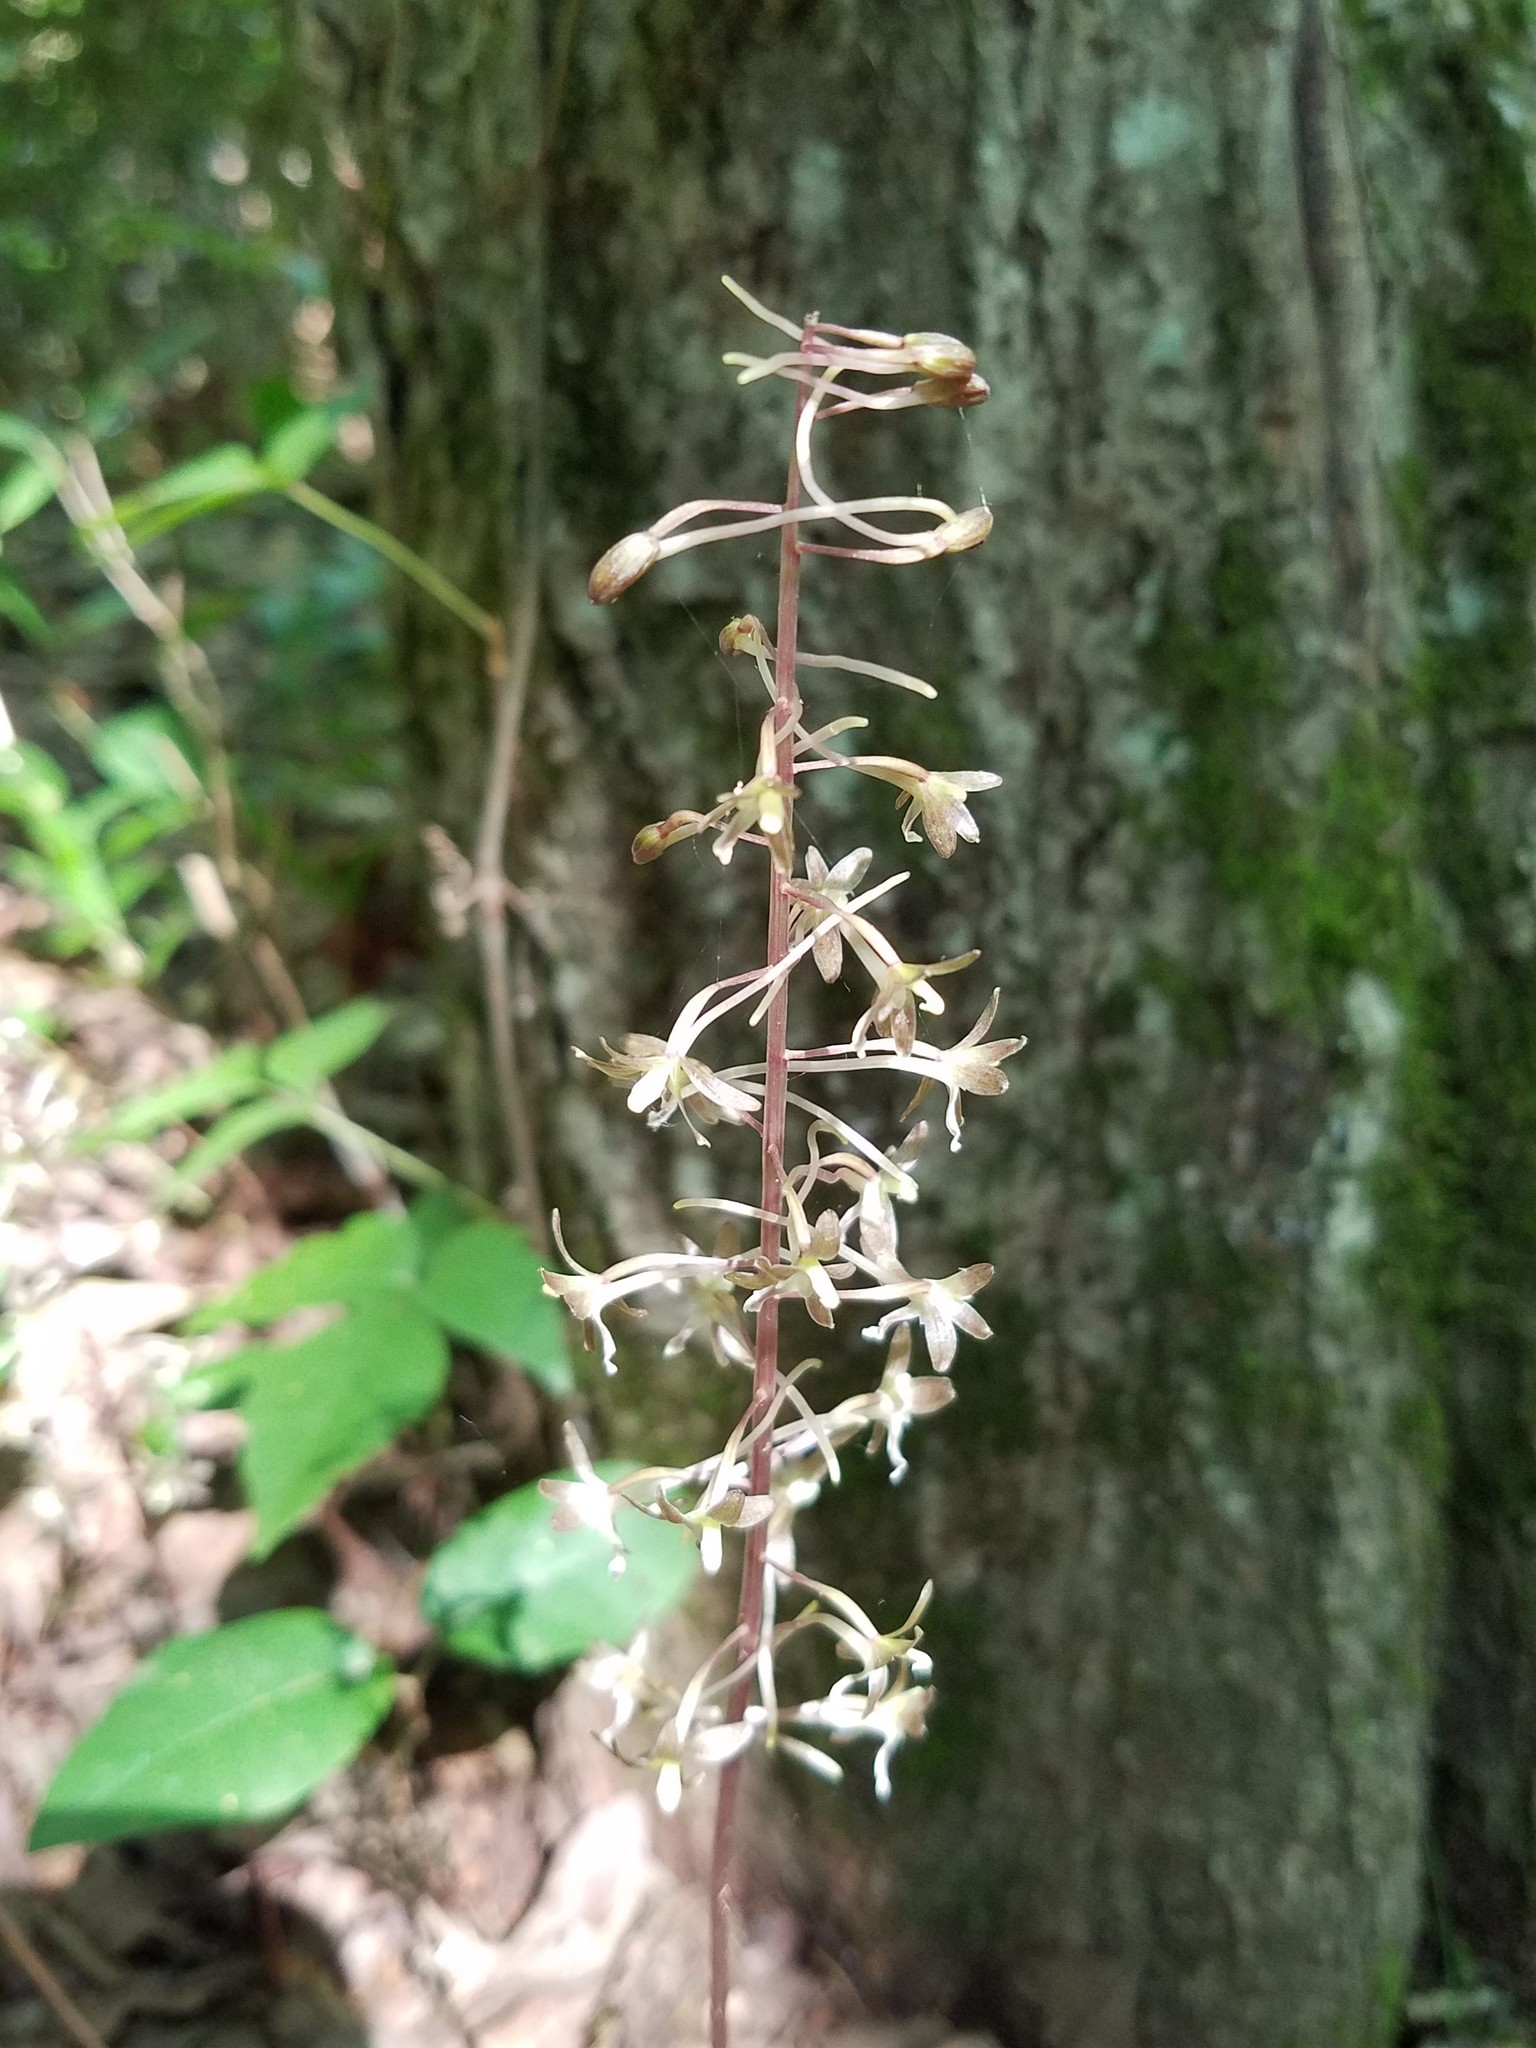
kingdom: Plantae
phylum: Tracheophyta
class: Liliopsida
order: Asparagales
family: Orchidaceae
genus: Tipularia
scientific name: Tipularia discolor
